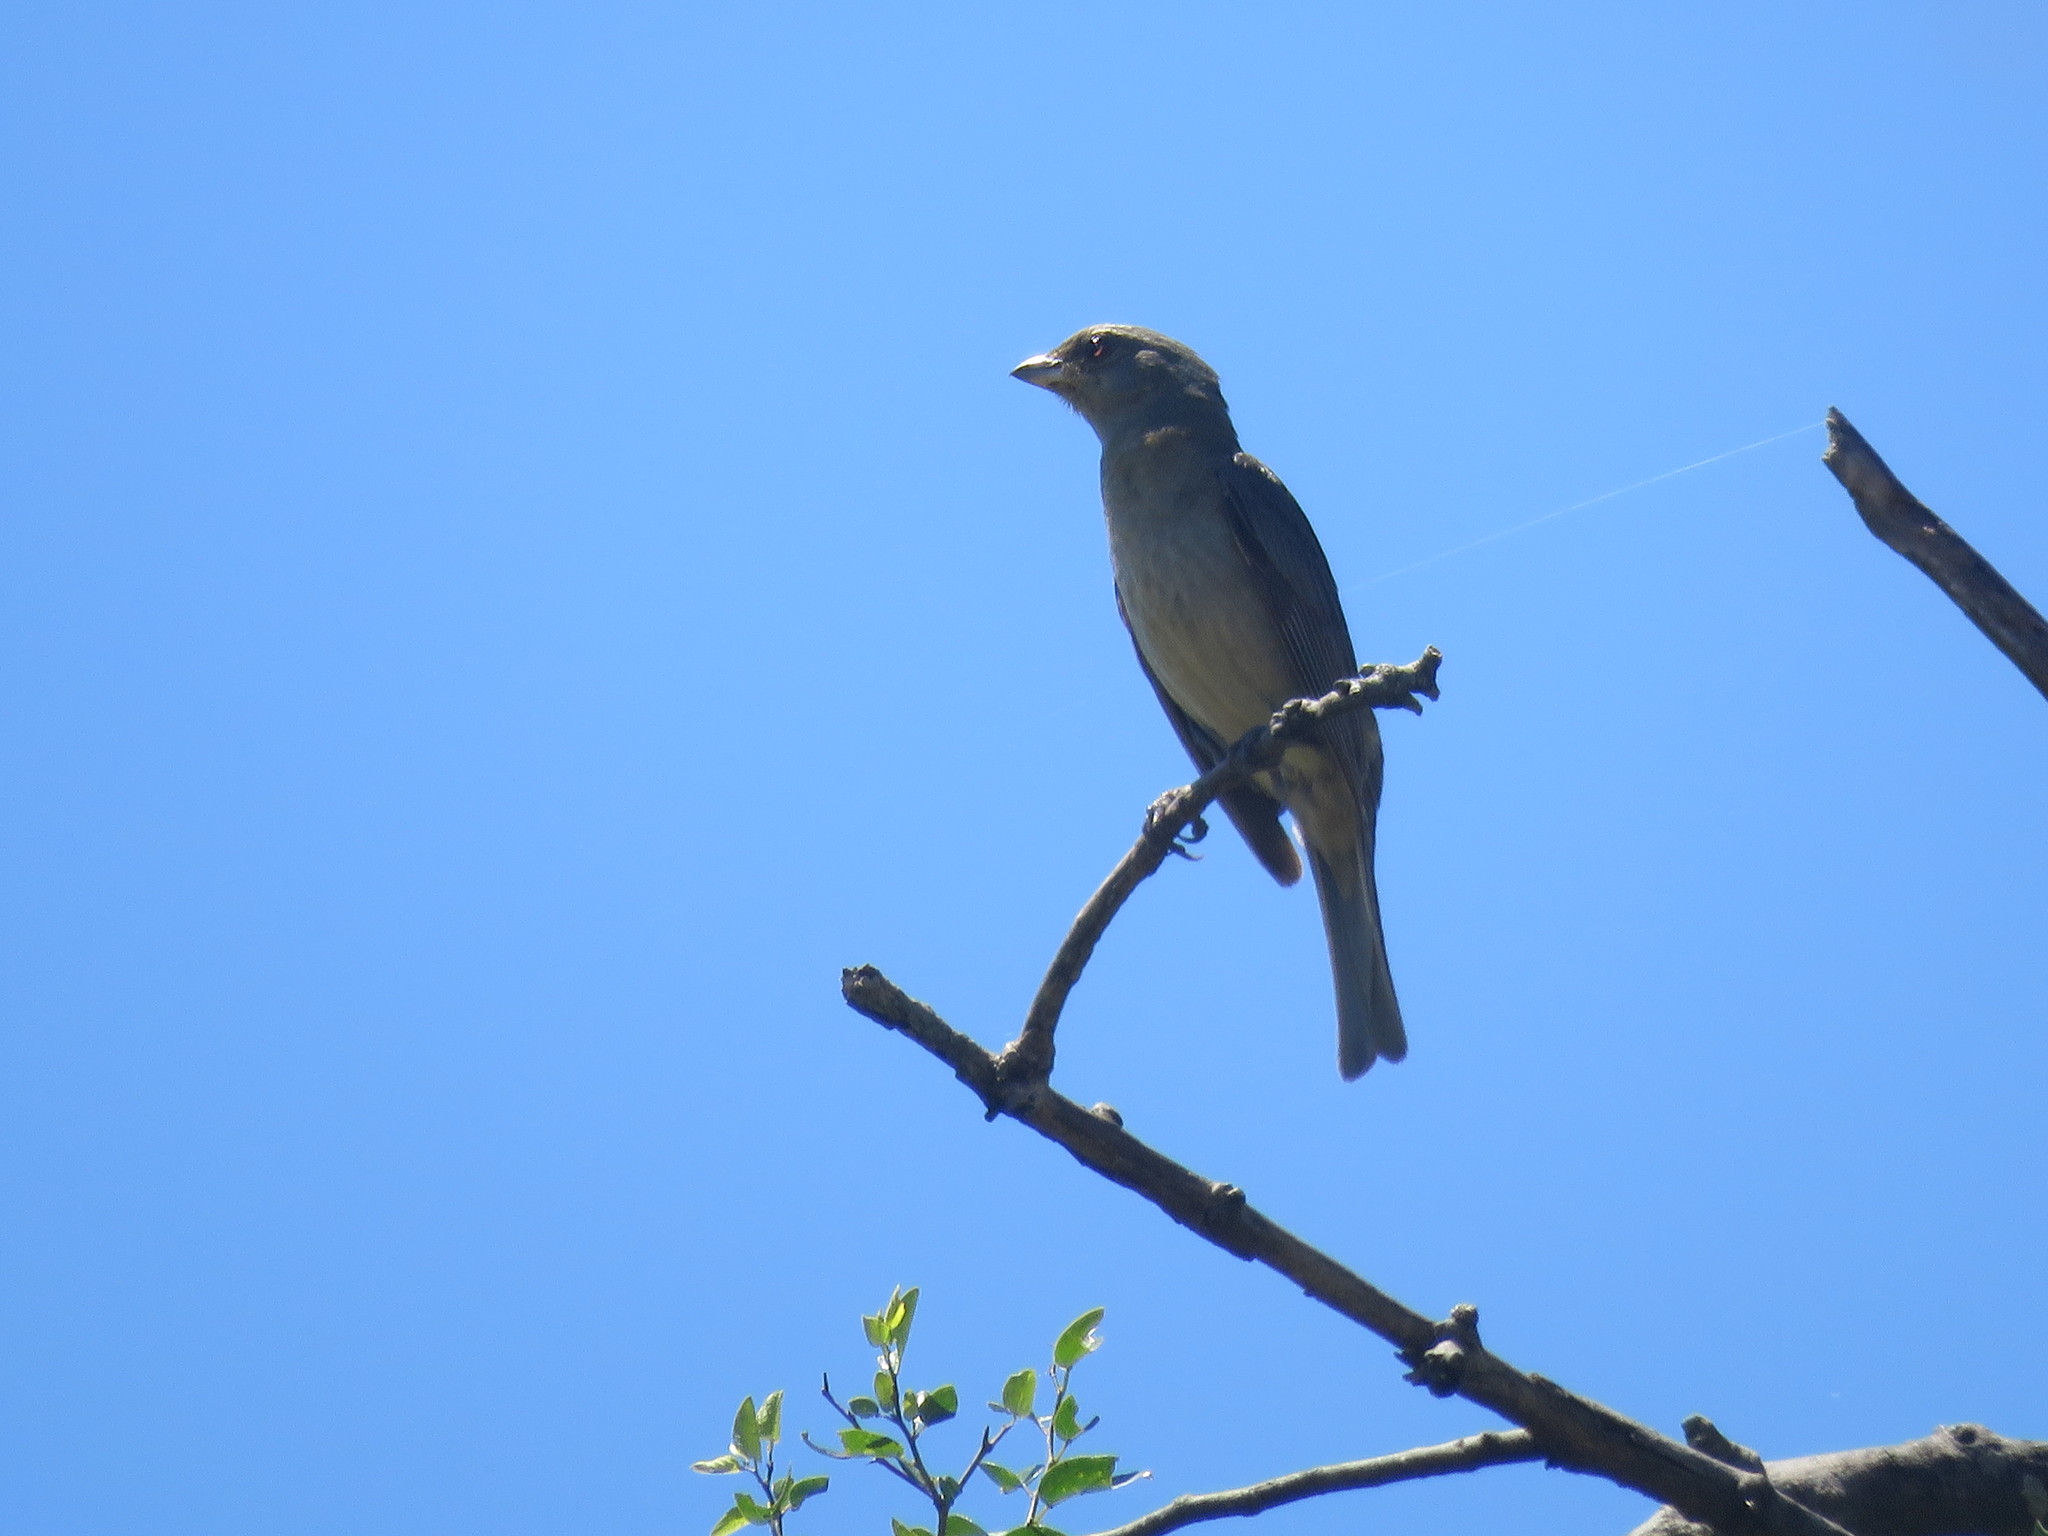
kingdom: Animalia
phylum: Chordata
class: Aves
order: Passeriformes
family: Thraupidae
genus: Rauenia
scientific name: Rauenia bonariensis
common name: Blue-and-yellow tanager
